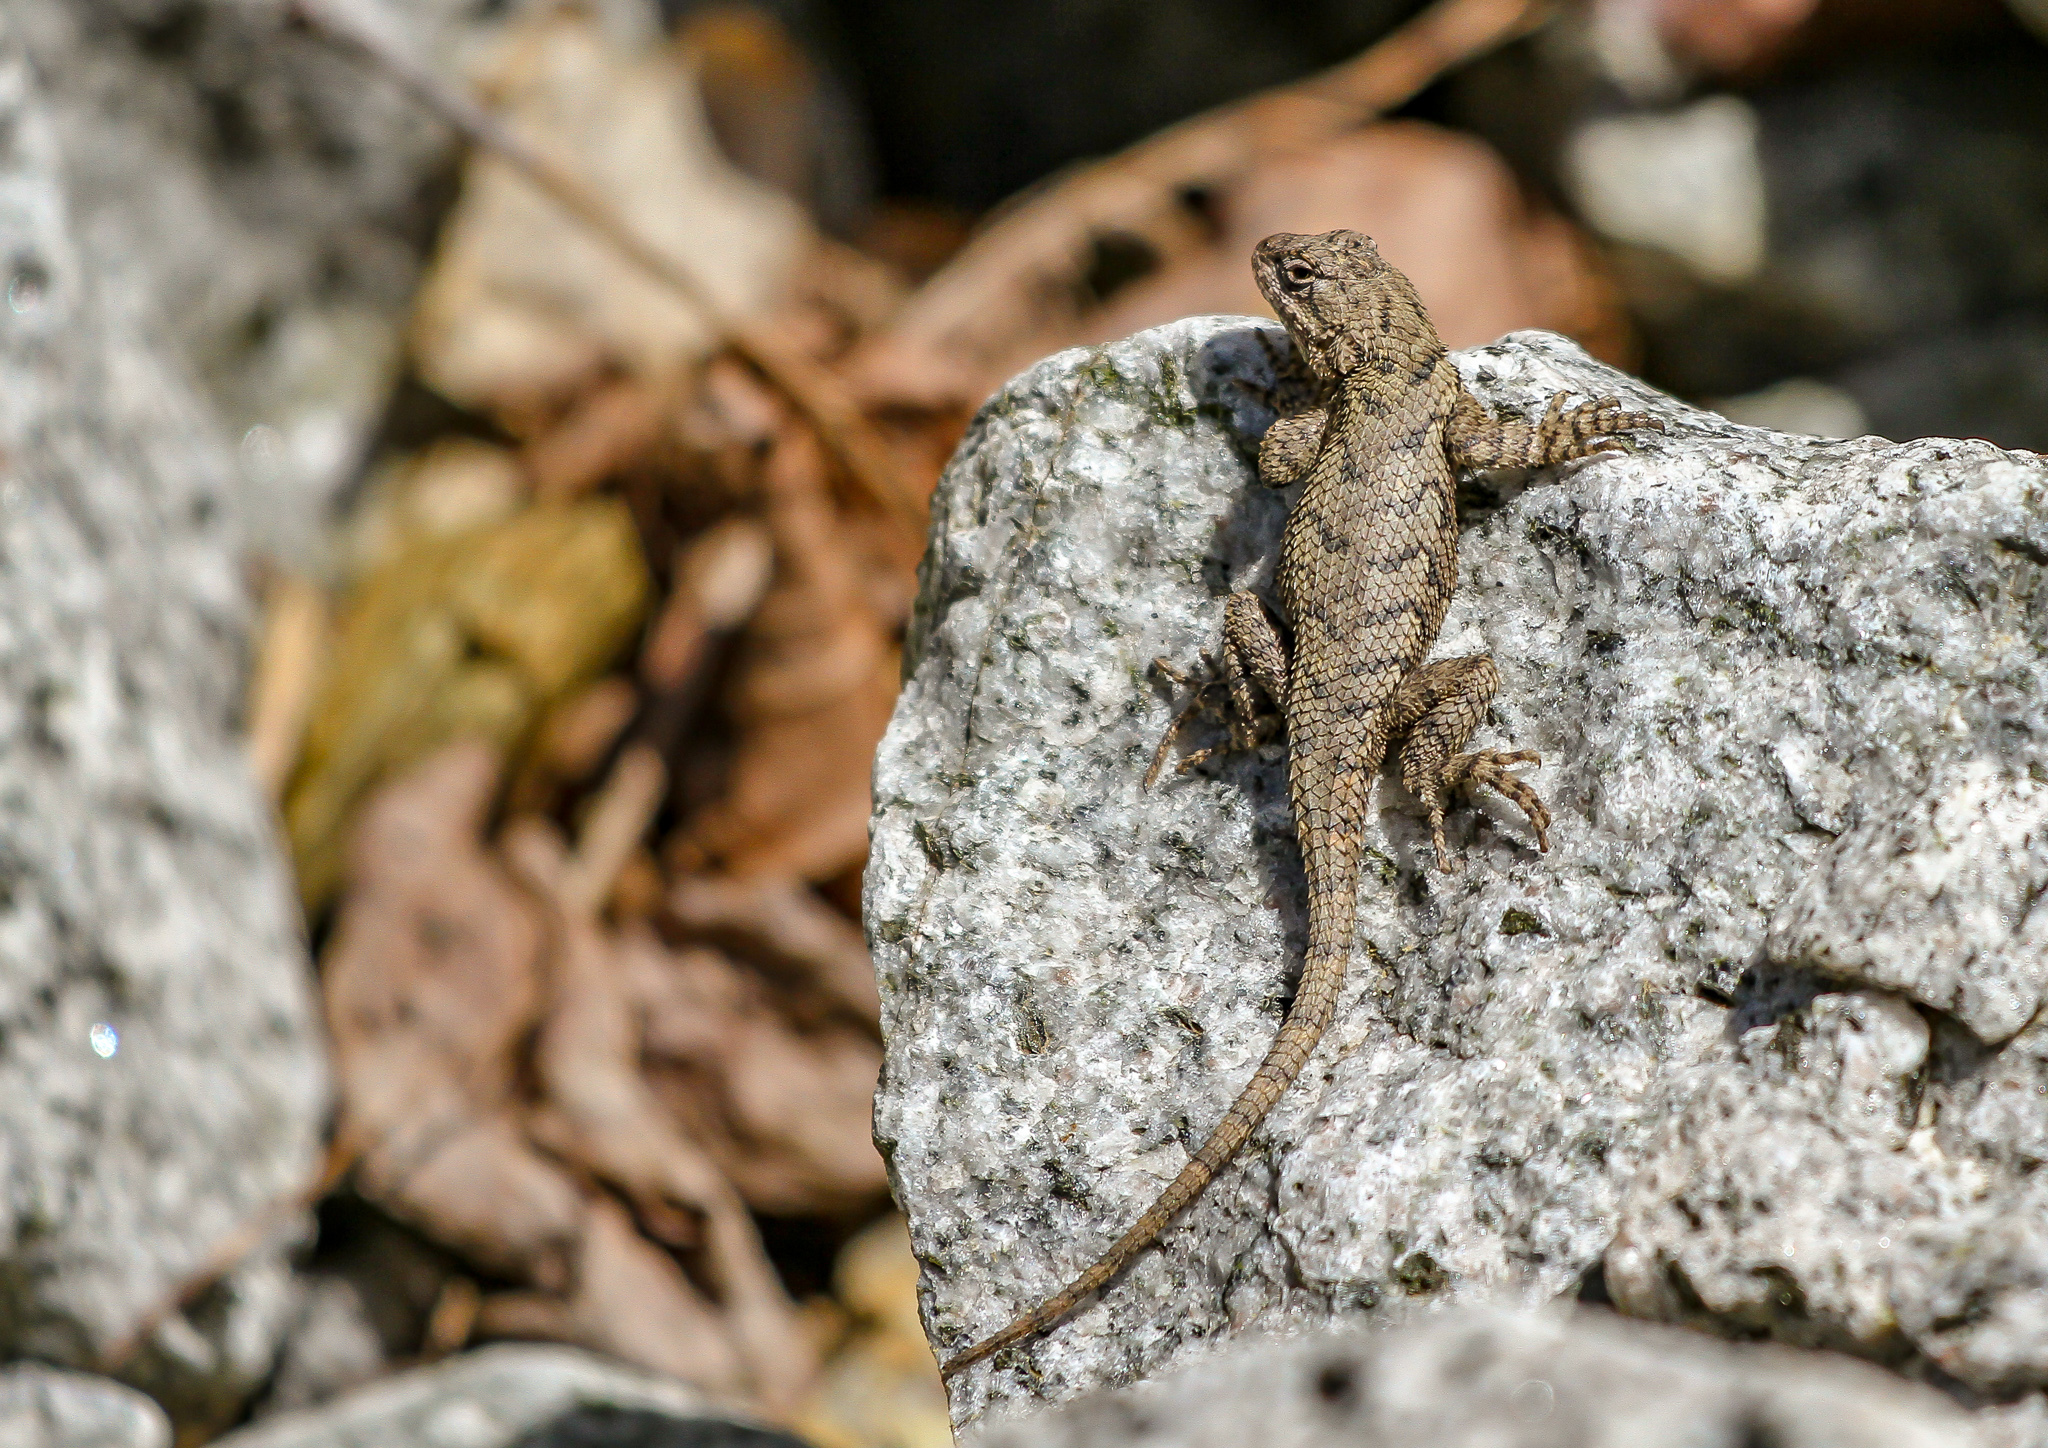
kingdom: Animalia
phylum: Chordata
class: Squamata
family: Phrynosomatidae
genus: Sceloporus
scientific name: Sceloporus undulatus
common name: Eastern fence lizard
